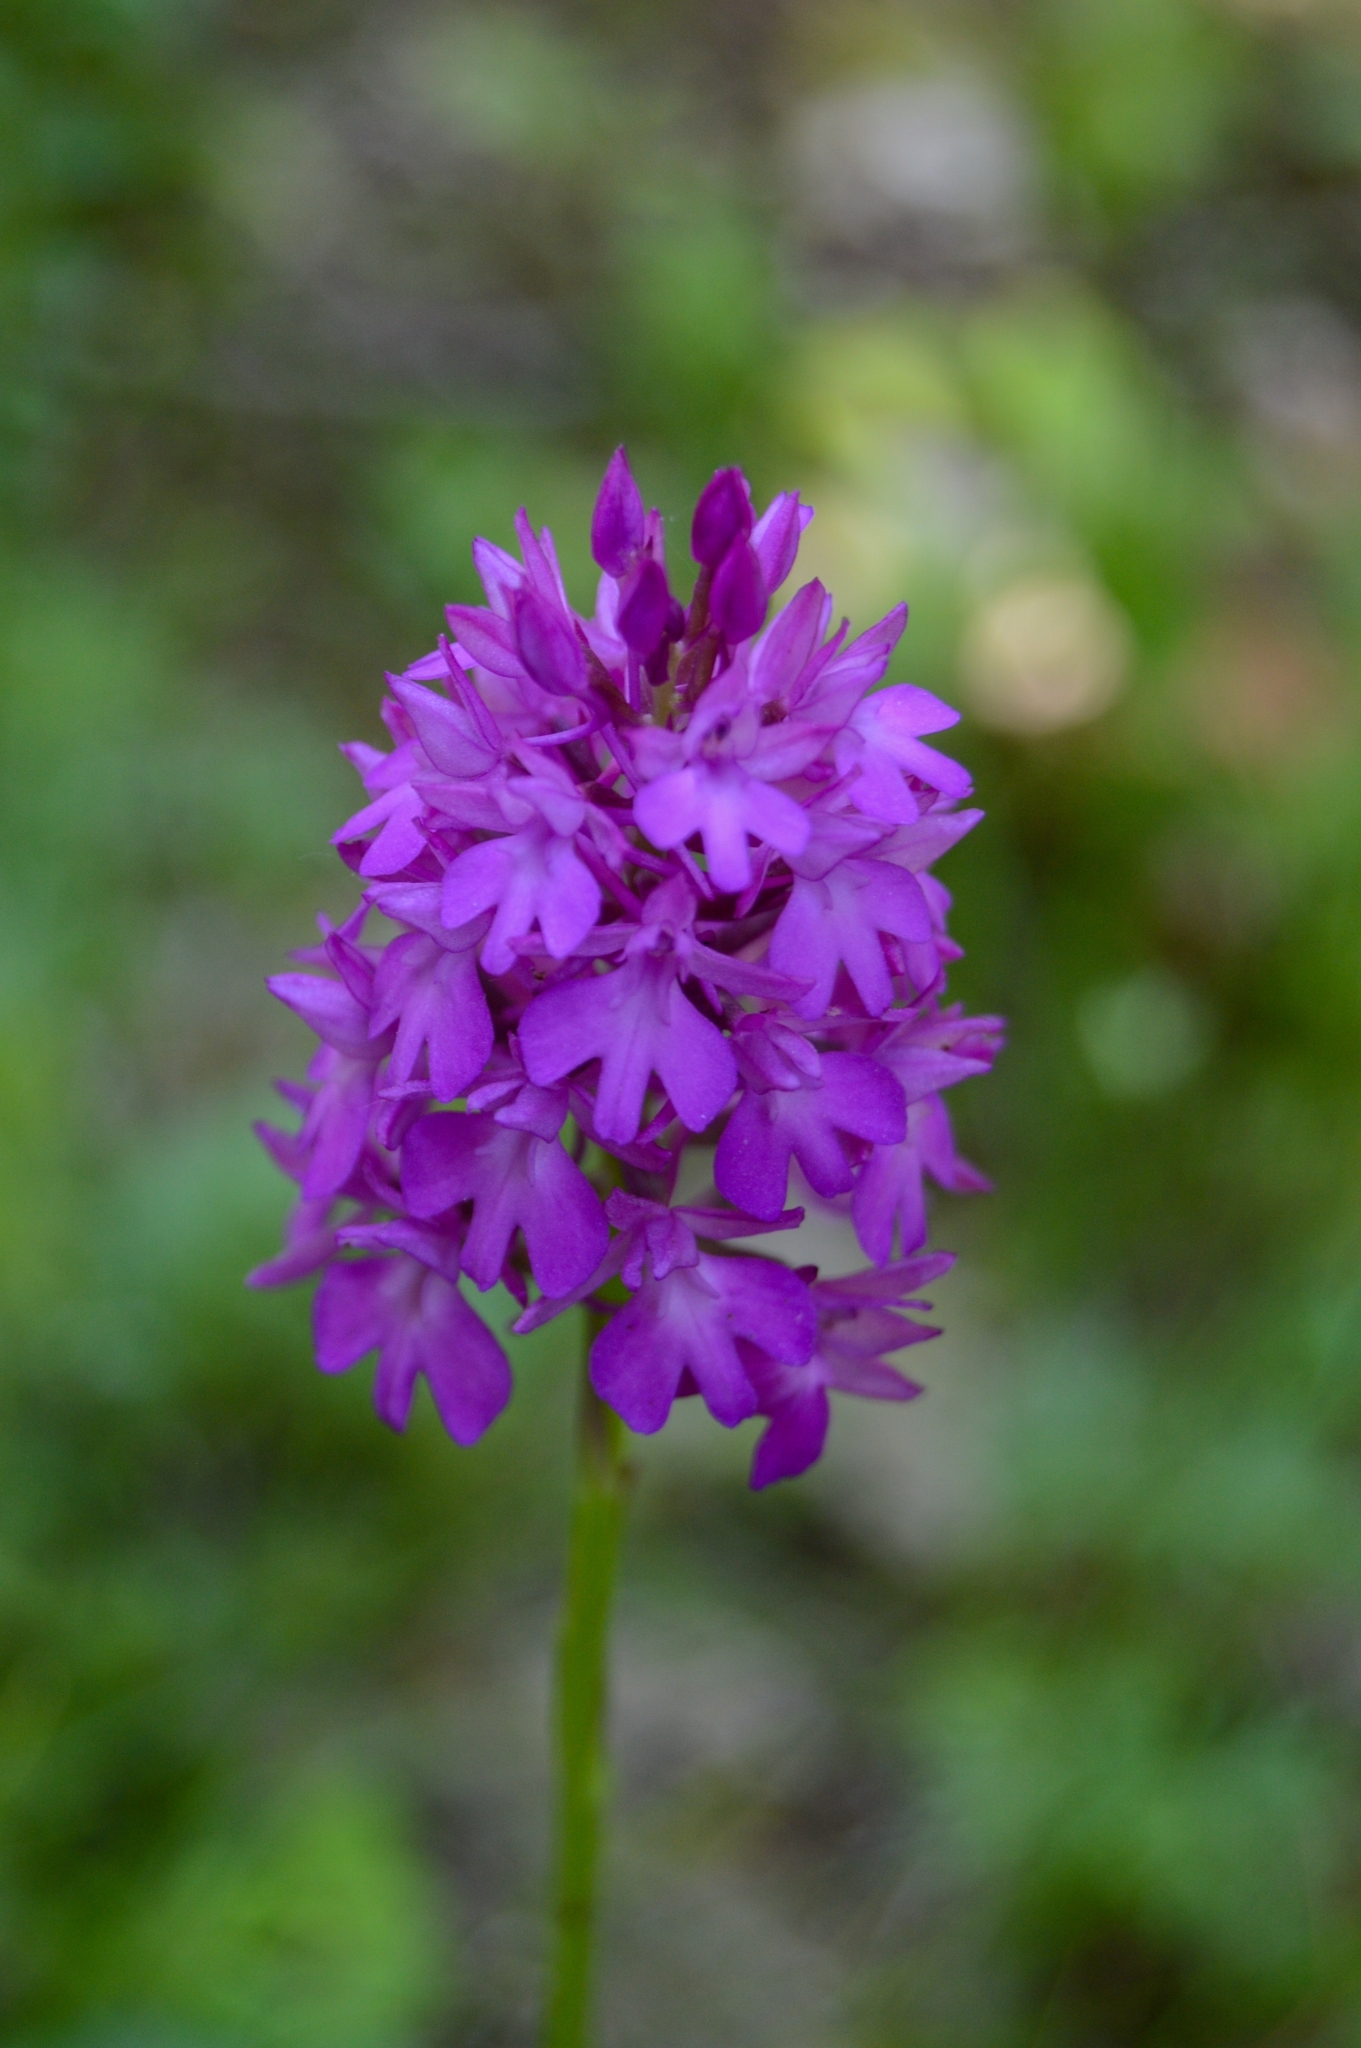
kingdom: Plantae
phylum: Tracheophyta
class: Liliopsida
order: Asparagales
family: Orchidaceae
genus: Anacamptis
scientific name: Anacamptis pyramidalis
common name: Pyramidal orchid
